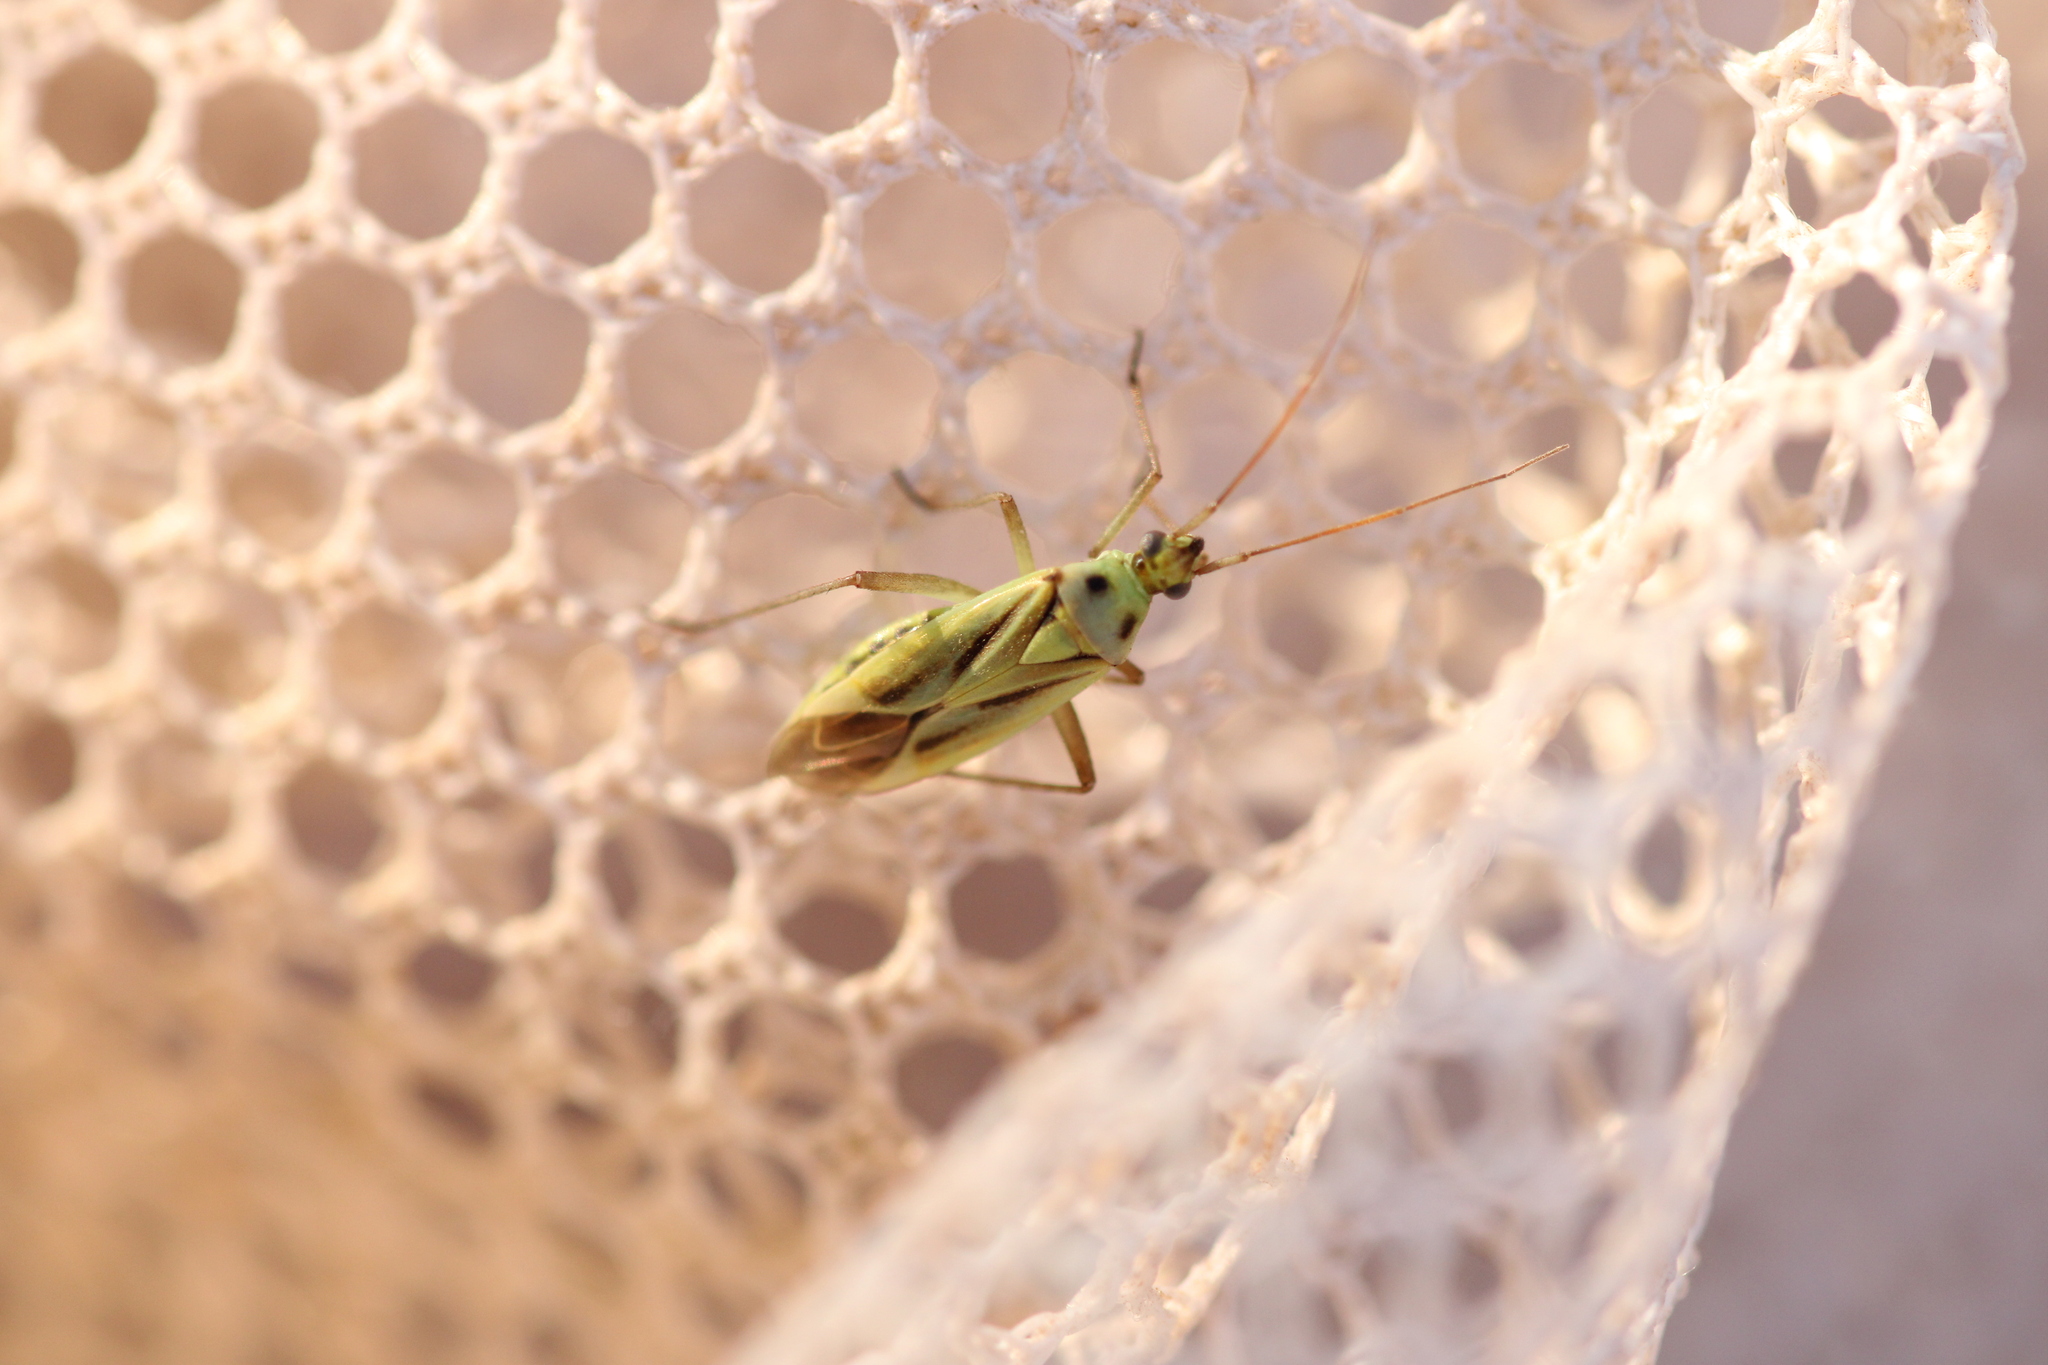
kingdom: Animalia
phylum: Arthropoda
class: Insecta
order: Hemiptera
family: Miridae
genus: Stenotus
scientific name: Stenotus binotatus
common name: Plant bug
